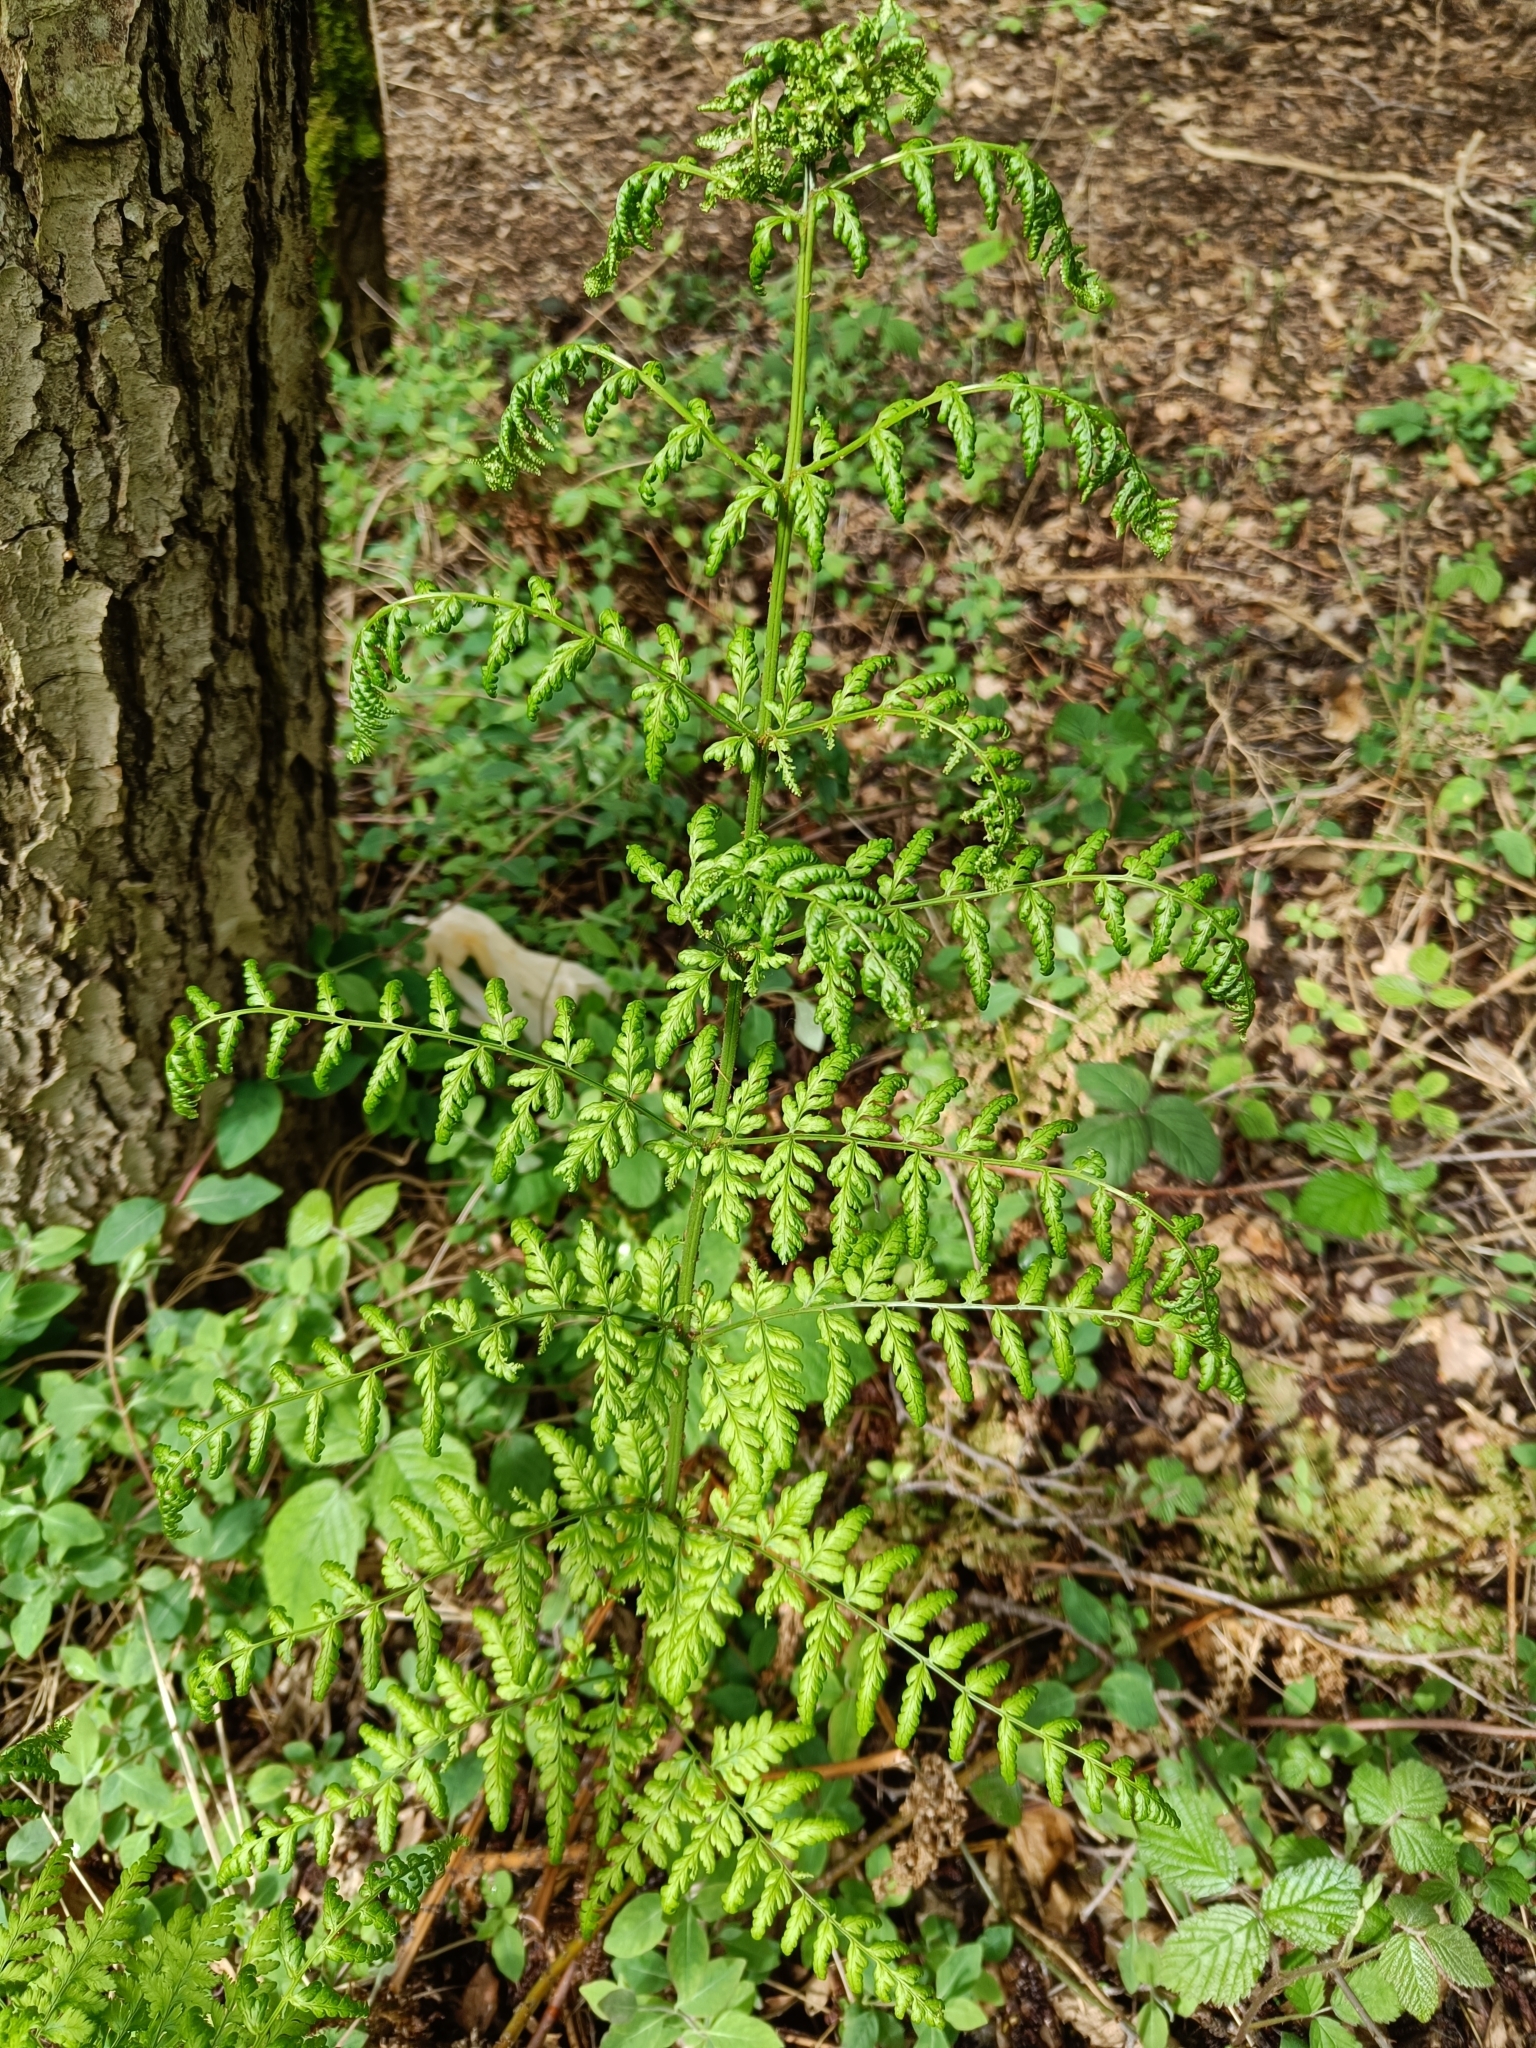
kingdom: Plantae
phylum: Tracheophyta
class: Polypodiopsida
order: Polypodiales
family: Dryopteridaceae
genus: Dryopteris
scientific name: Dryopteris dilatata
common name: Broad buckler-fern
